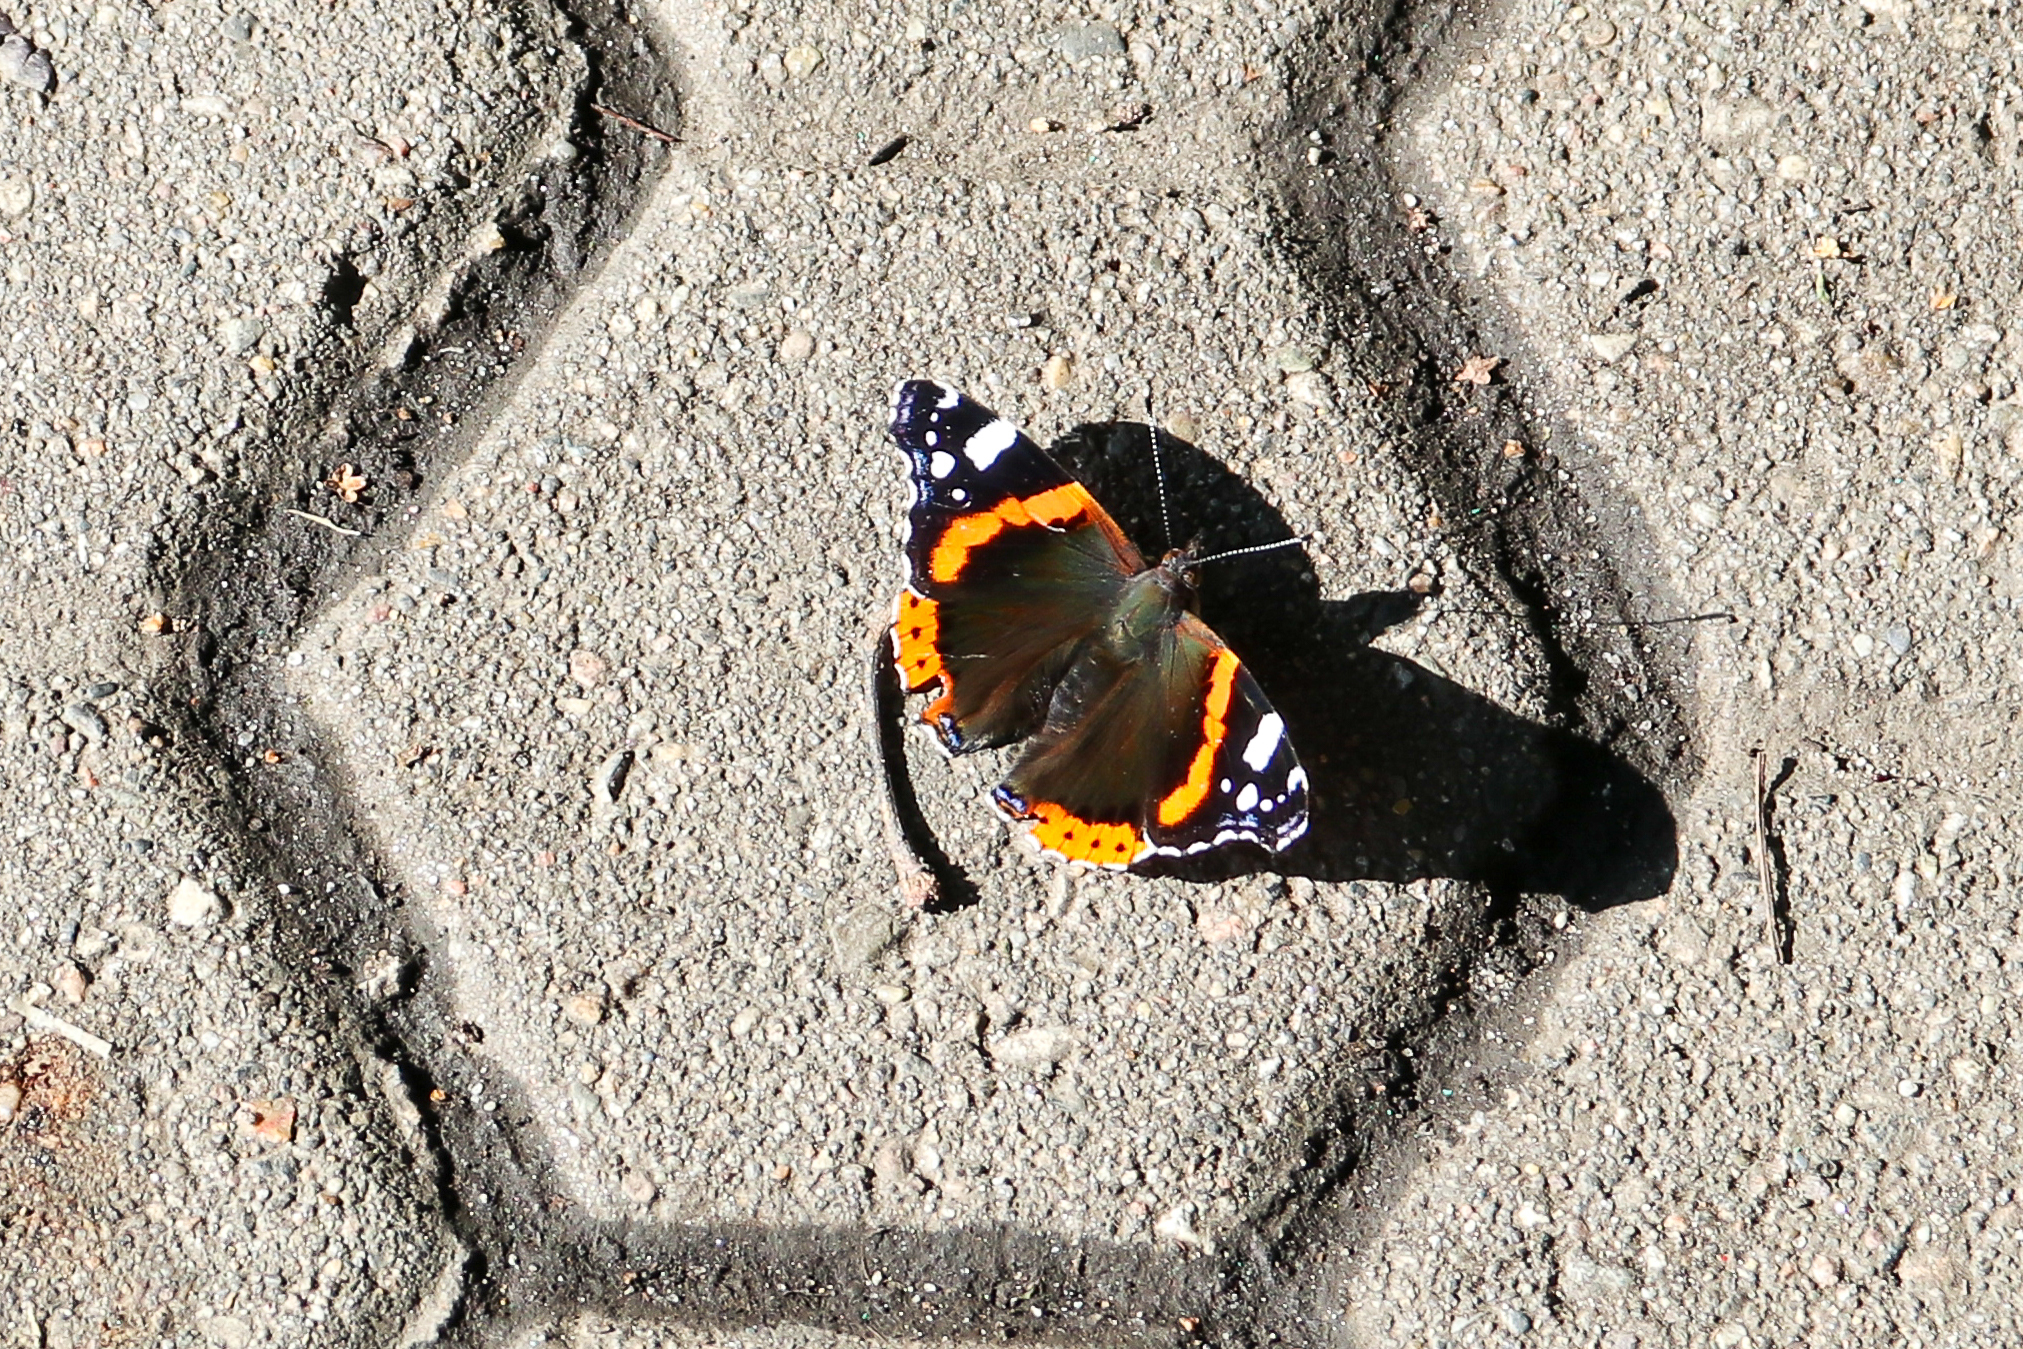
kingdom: Animalia
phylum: Arthropoda
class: Insecta
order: Lepidoptera
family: Nymphalidae
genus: Vanessa
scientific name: Vanessa atalanta
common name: Red admiral
